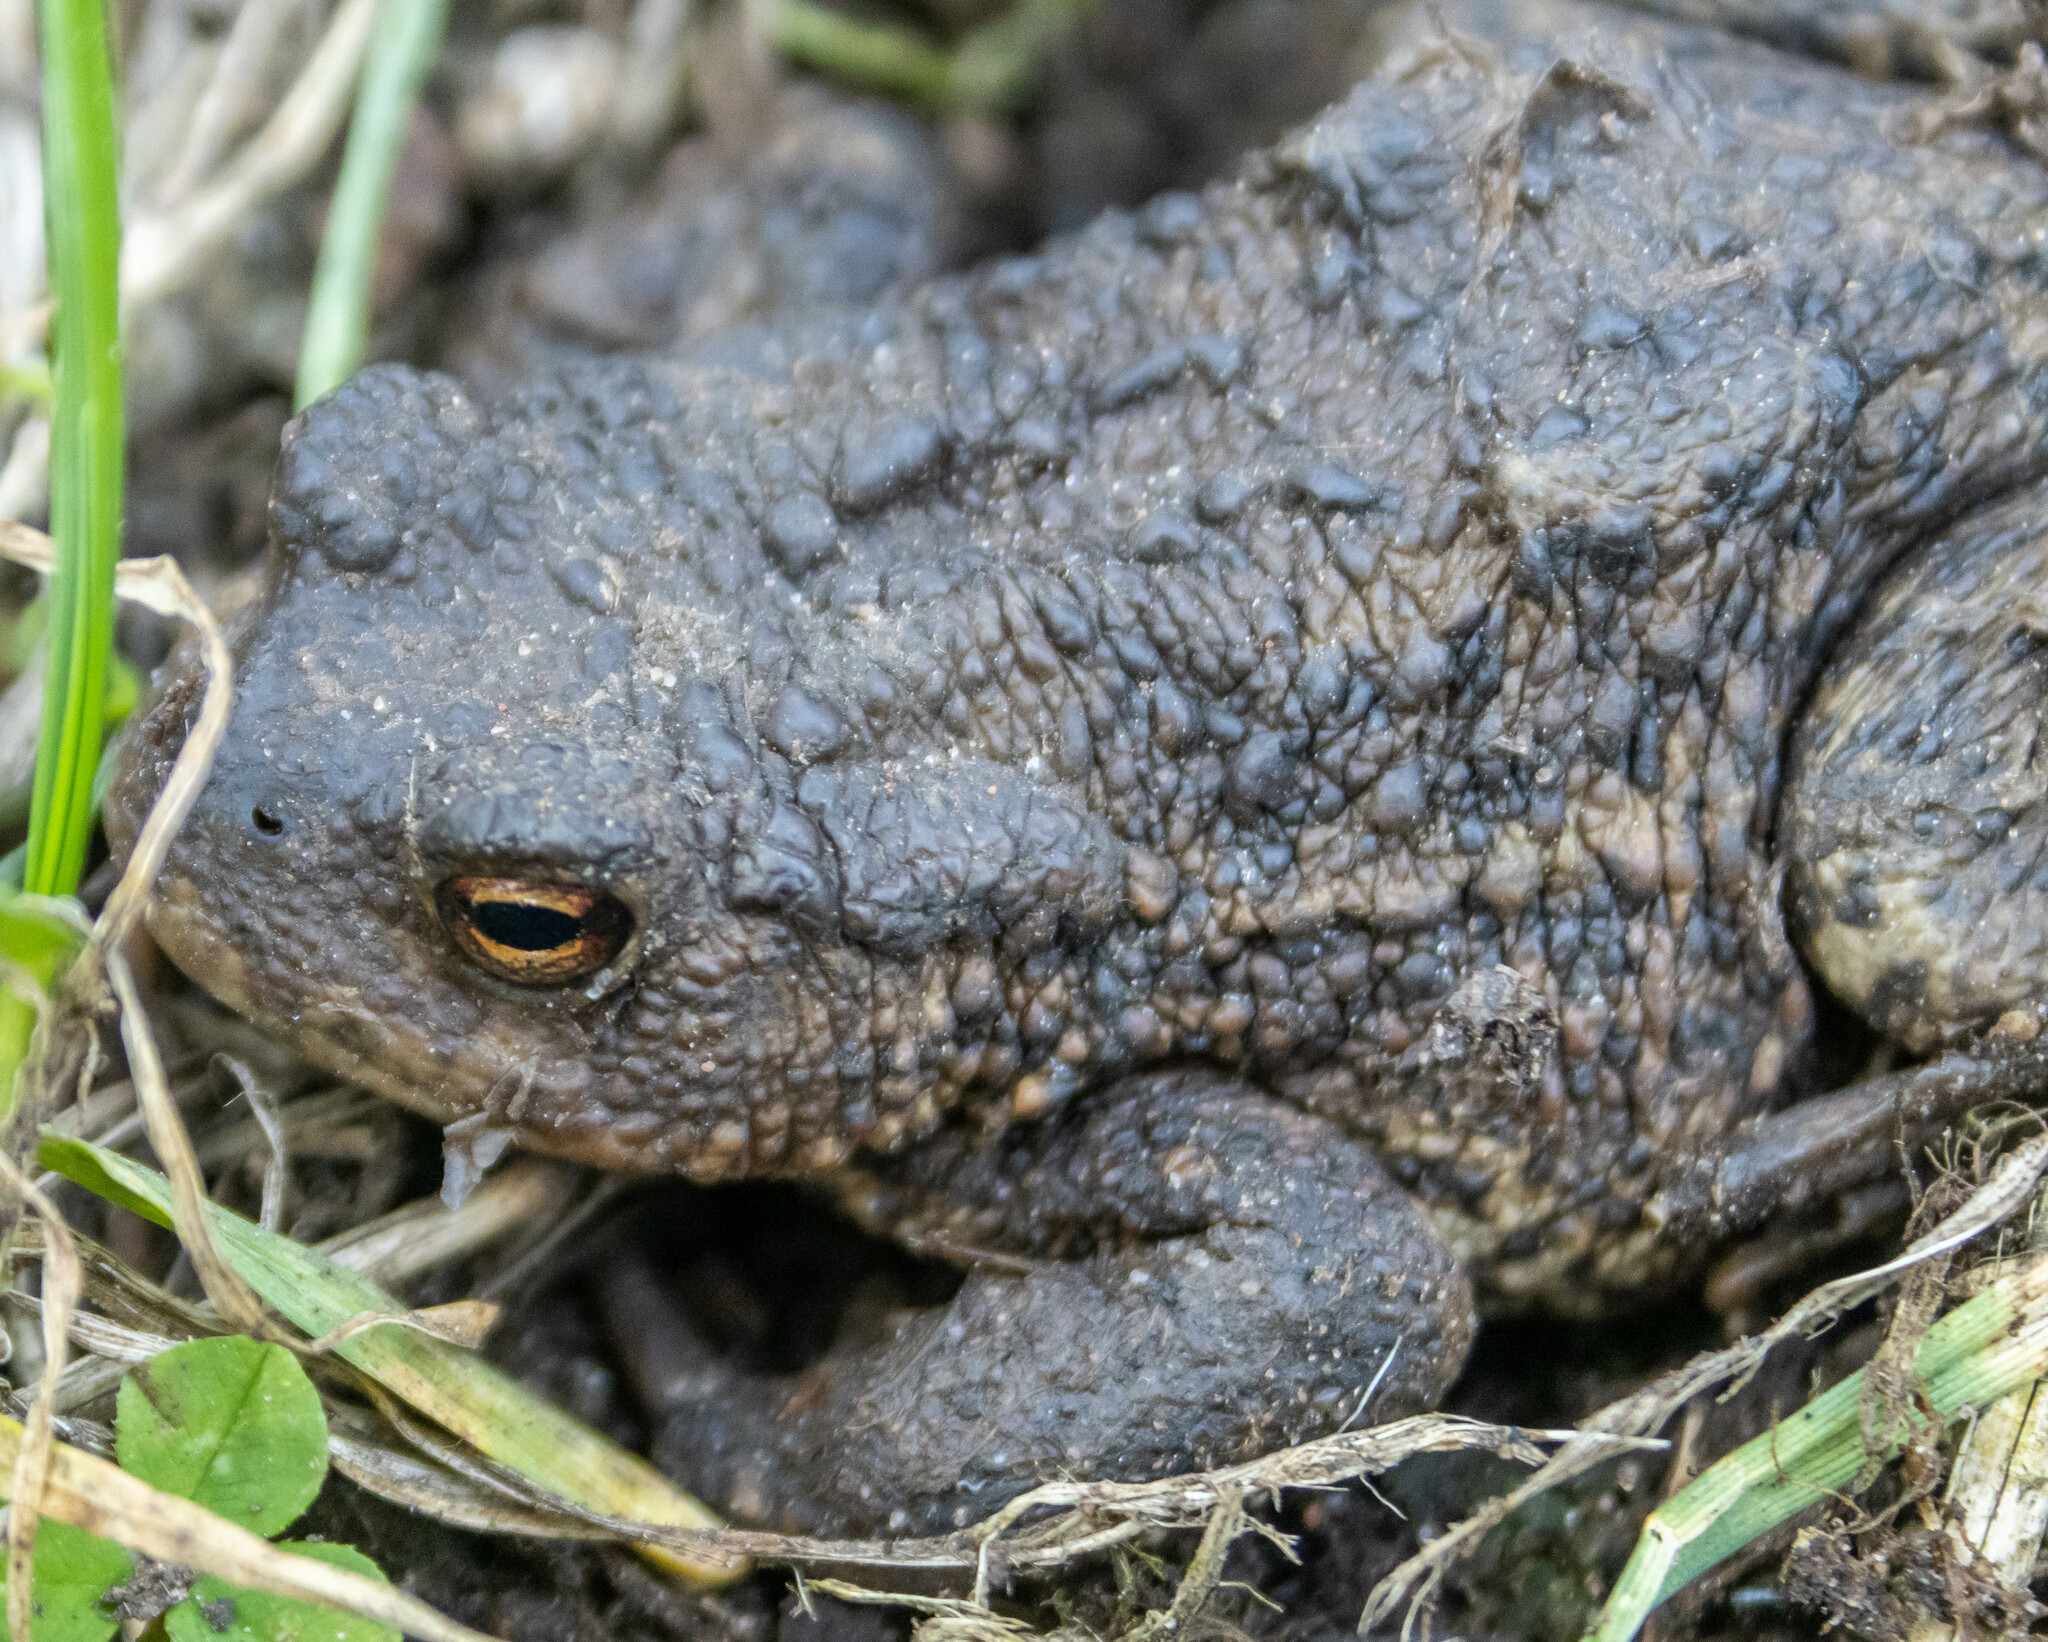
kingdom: Animalia
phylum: Chordata
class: Amphibia
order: Anura
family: Bufonidae
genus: Bufo
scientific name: Bufo bufo
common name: Common toad
